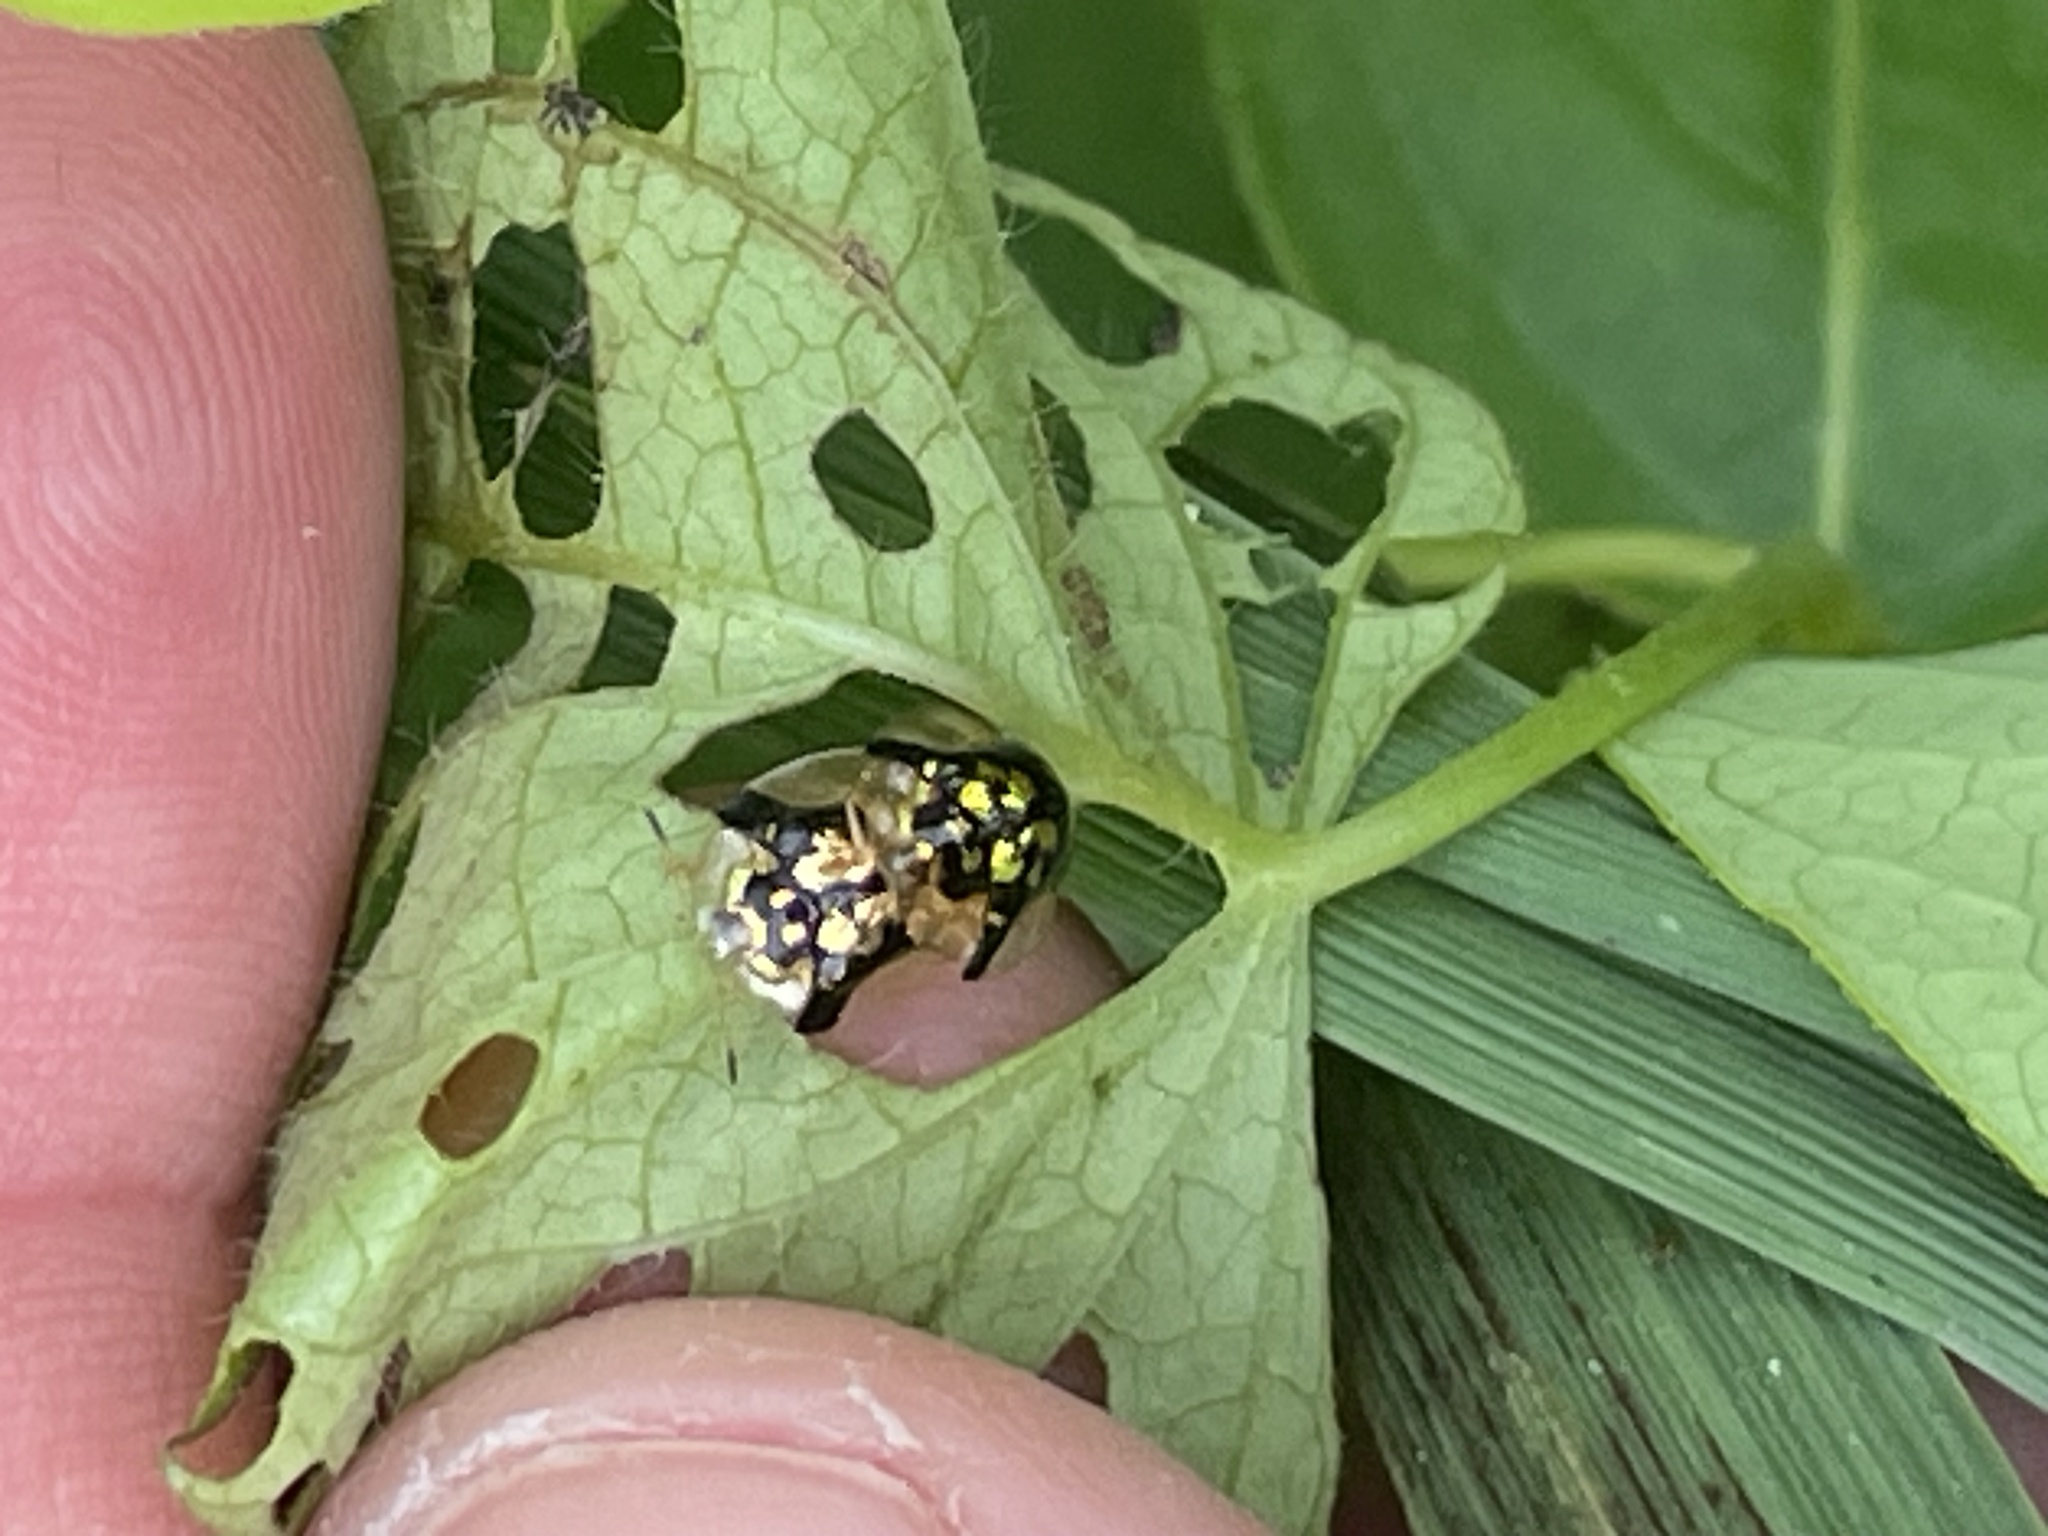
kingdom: Animalia
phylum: Arthropoda
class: Insecta
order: Coleoptera
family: Chrysomelidae
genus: Deloyala
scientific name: Deloyala guttata
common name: Mottled tortoise beetle
